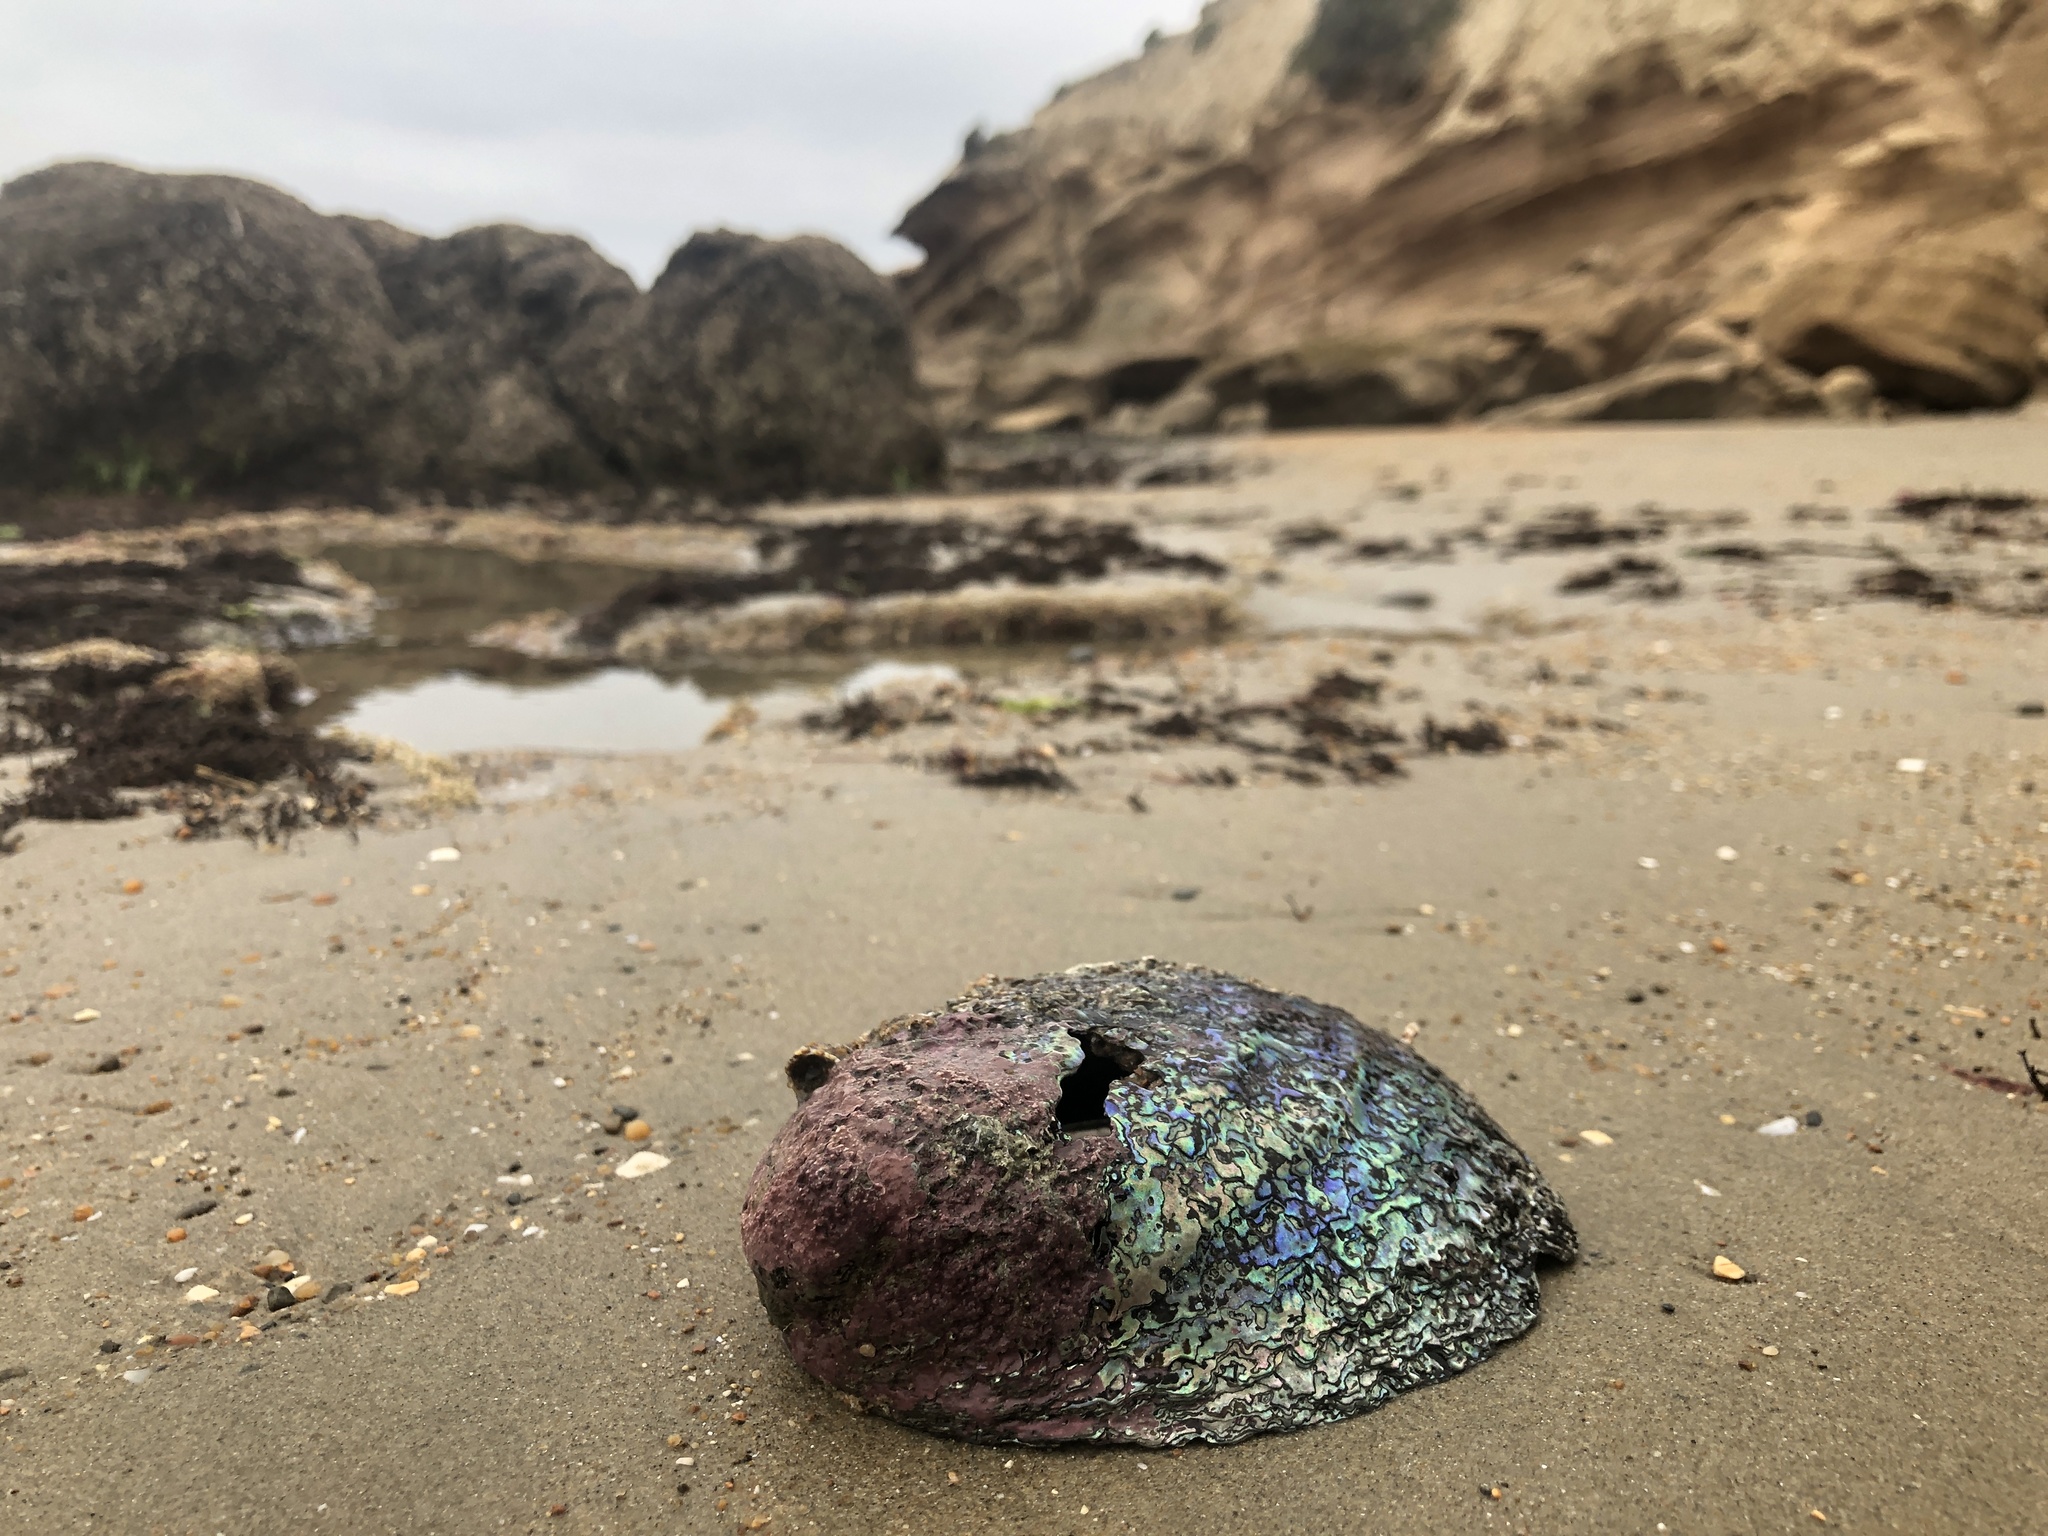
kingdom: Animalia
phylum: Mollusca
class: Gastropoda
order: Lepetellida
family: Haliotidae
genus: Haliotis
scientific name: Haliotis iris
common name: Abalone
